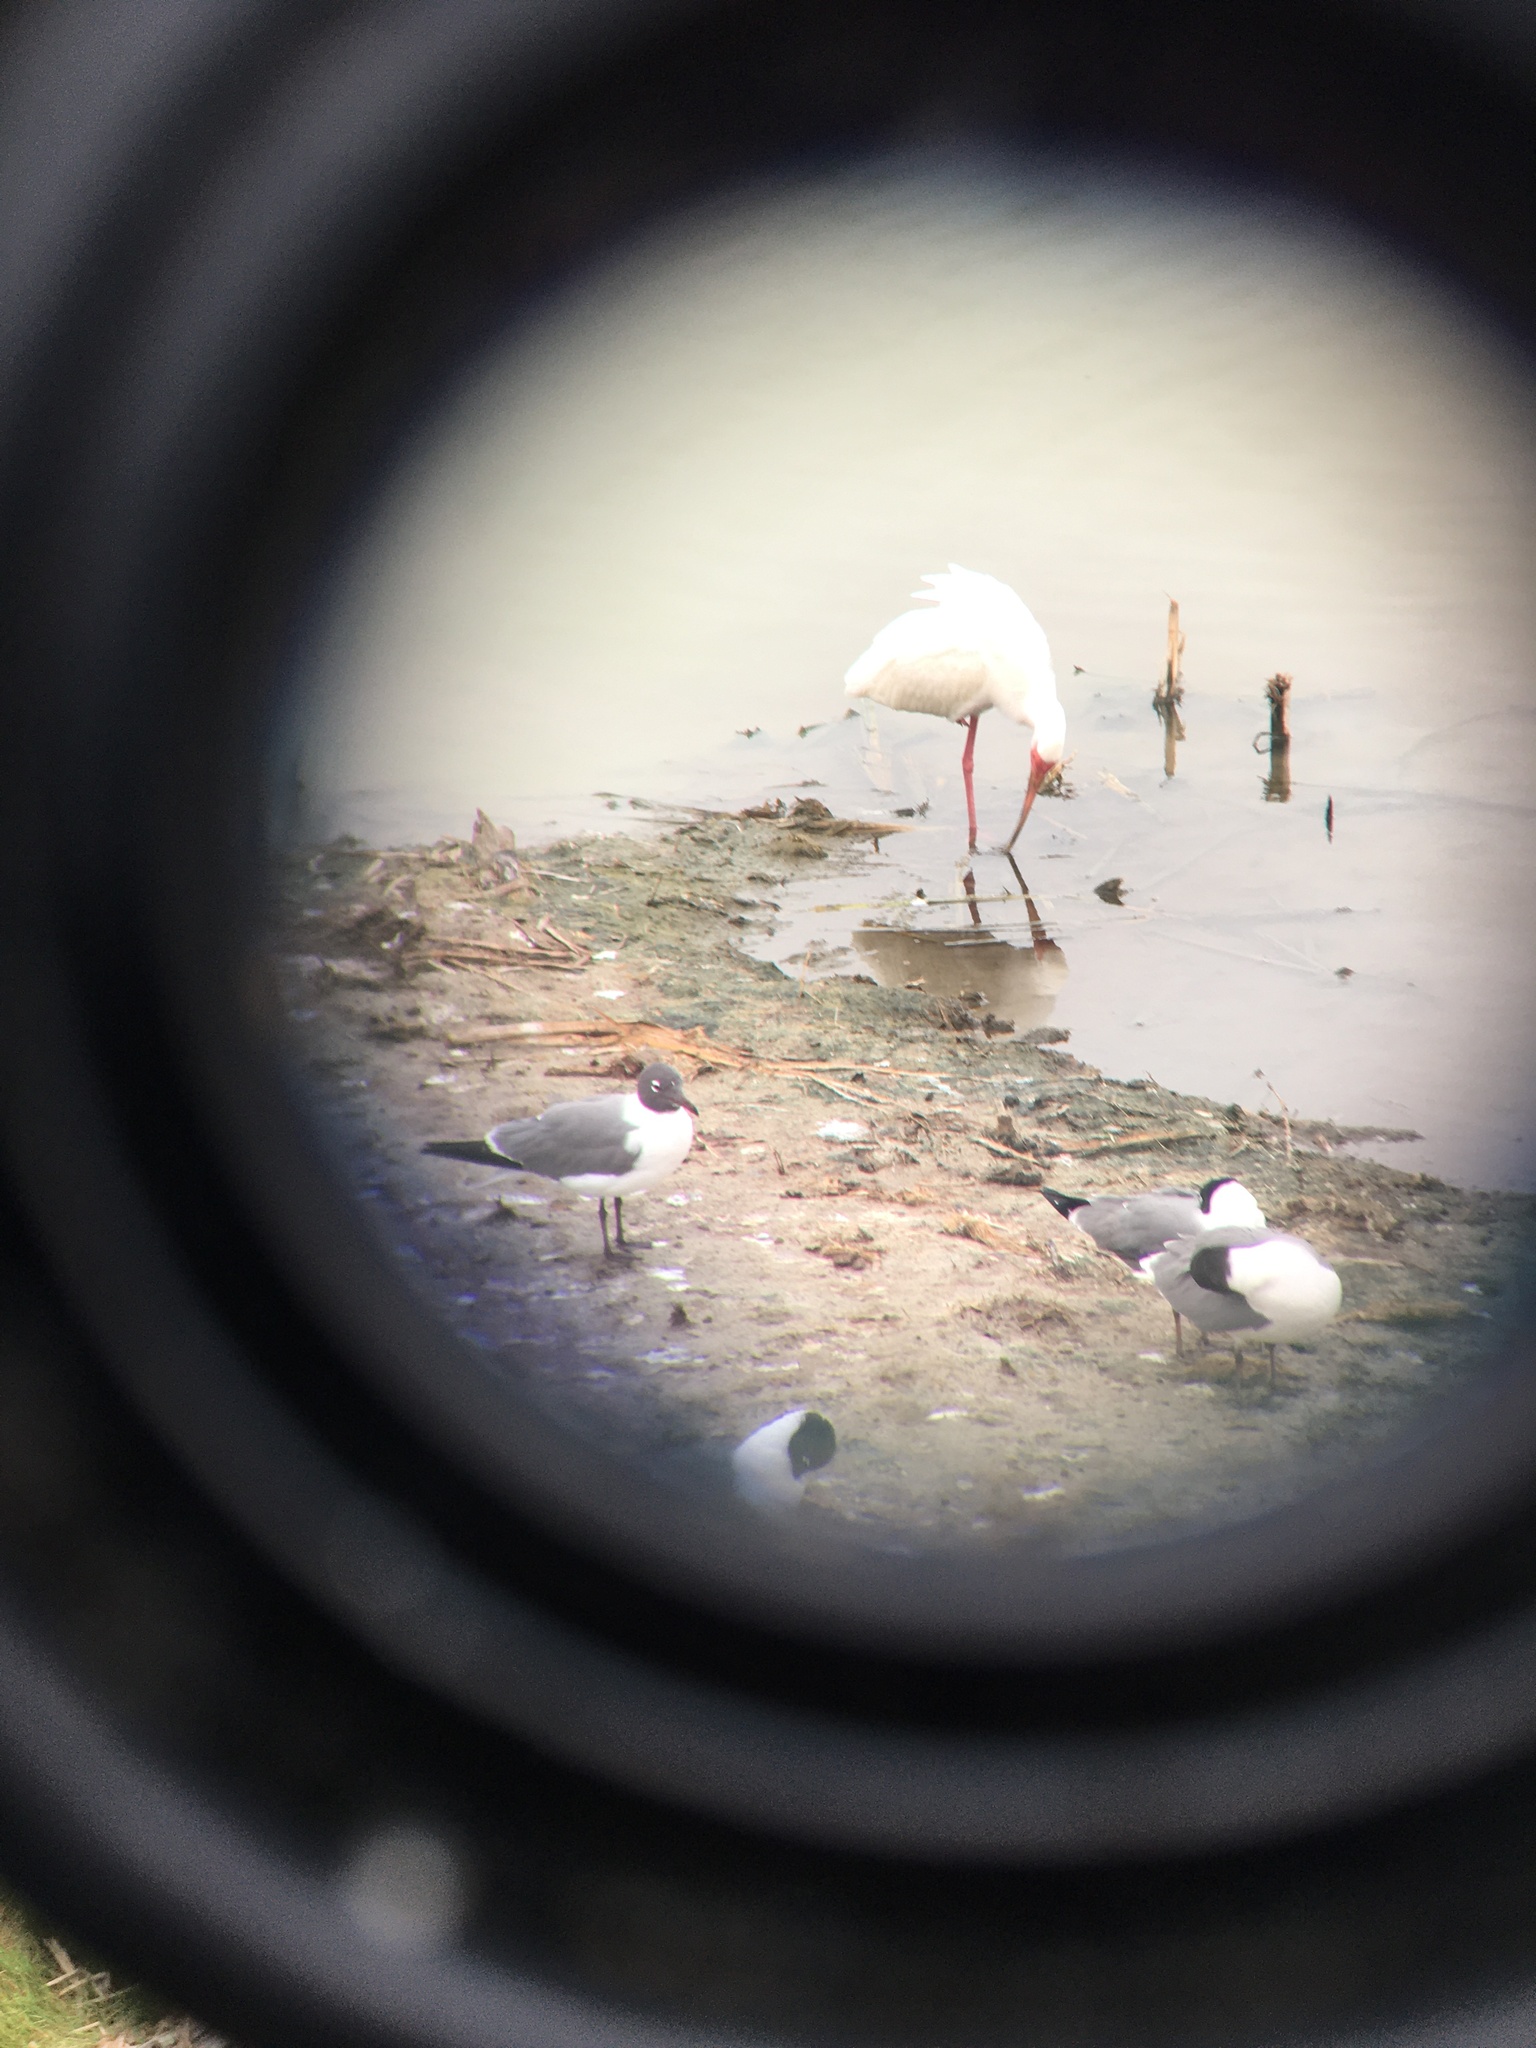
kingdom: Animalia
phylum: Chordata
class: Aves
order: Pelecaniformes
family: Threskiornithidae
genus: Eudocimus
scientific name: Eudocimus albus
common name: White ibis
